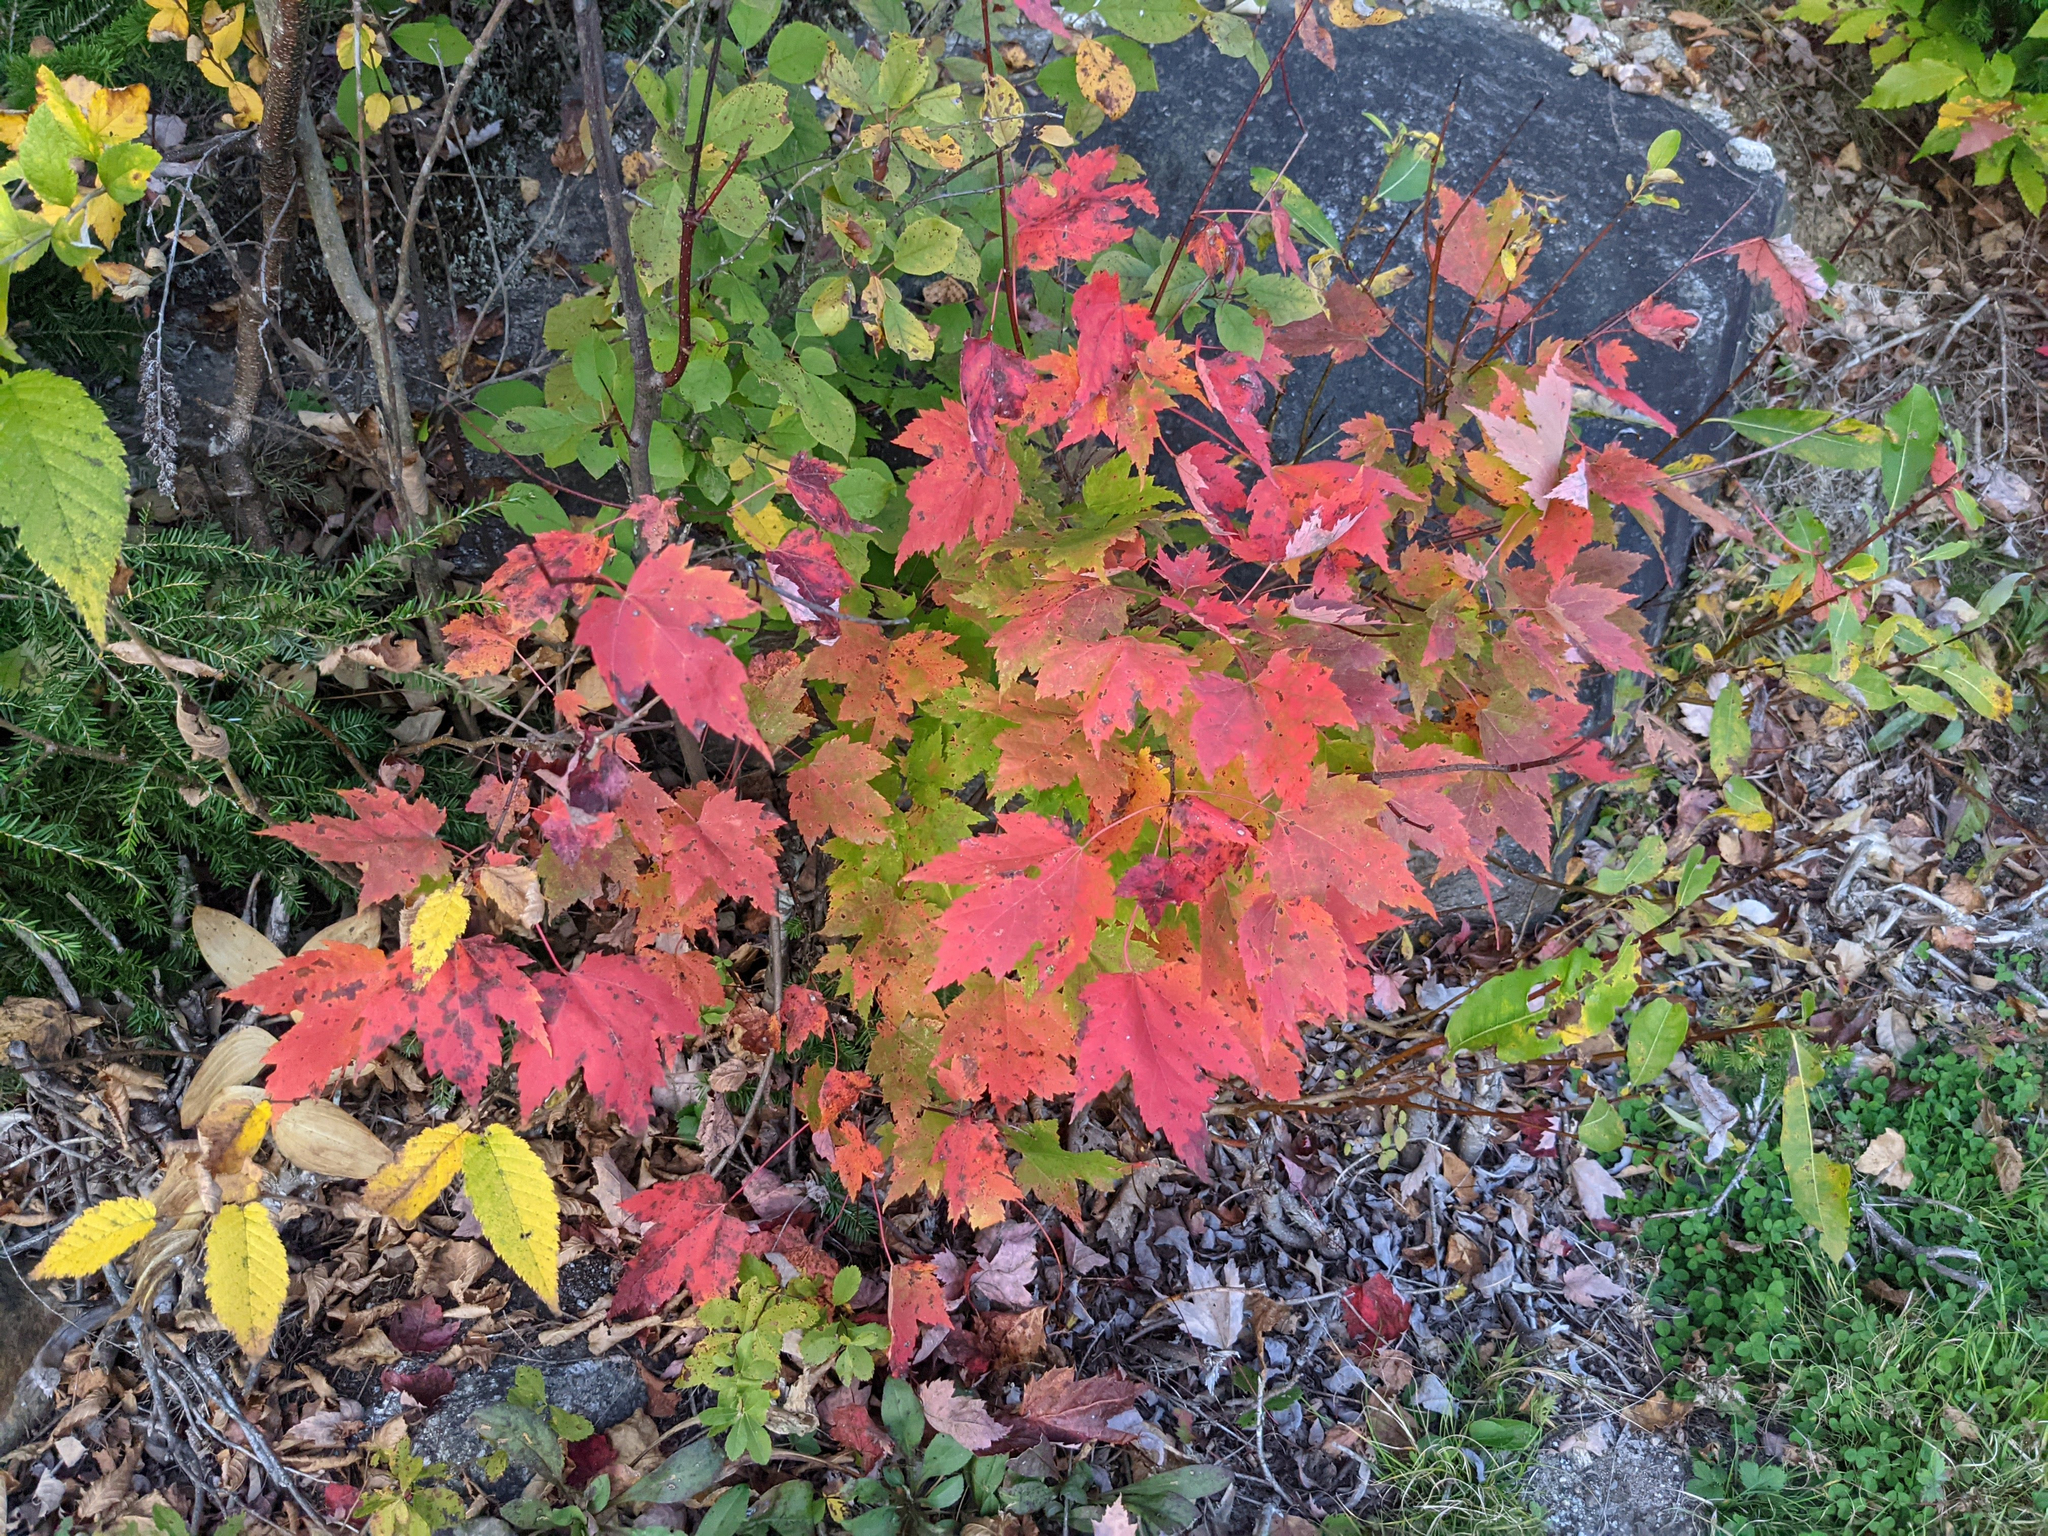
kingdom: Plantae
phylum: Tracheophyta
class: Magnoliopsida
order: Sapindales
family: Sapindaceae
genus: Acer
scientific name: Acer rubrum
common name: Red maple
